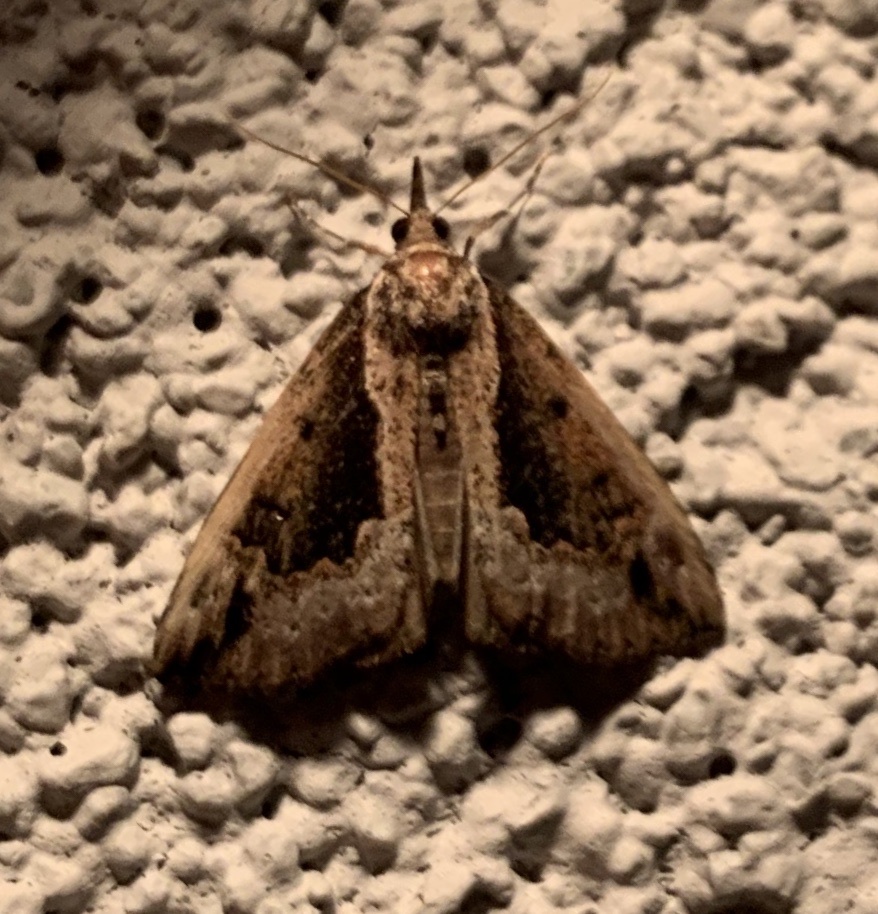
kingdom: Animalia
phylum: Arthropoda
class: Insecta
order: Lepidoptera
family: Erebidae
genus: Hypena
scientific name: Hypena baltimoralis
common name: Baltimore snout
